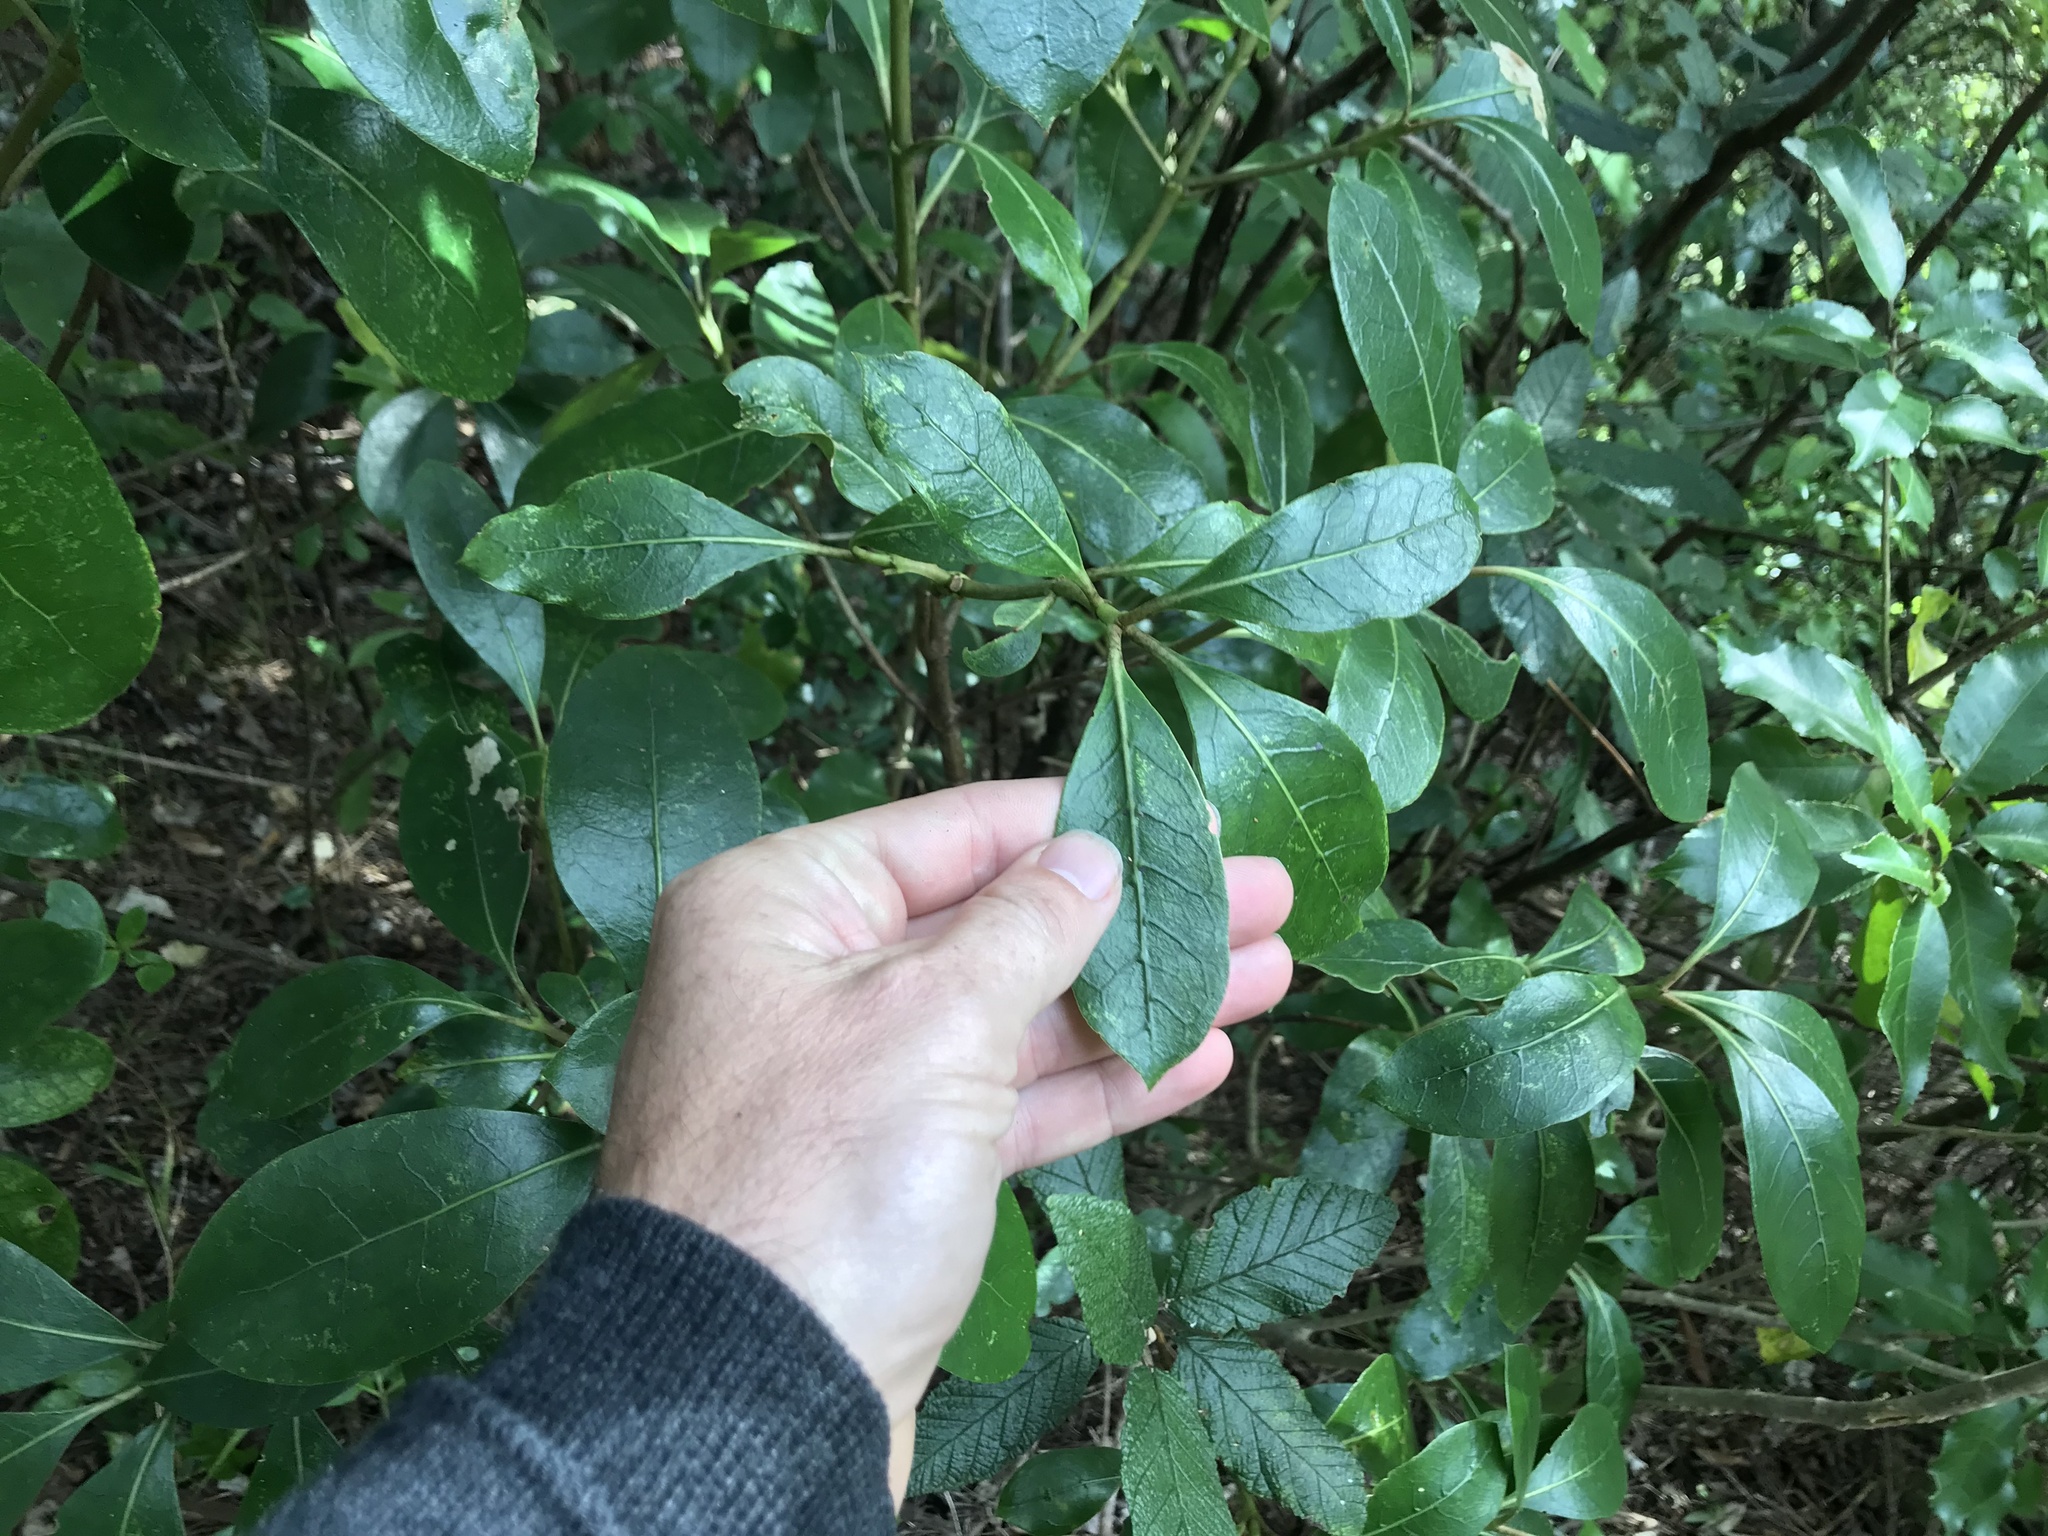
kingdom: Plantae
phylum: Tracheophyta
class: Magnoliopsida
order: Gentianales
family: Rubiaceae
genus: Coprosma
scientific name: Coprosma lucida
